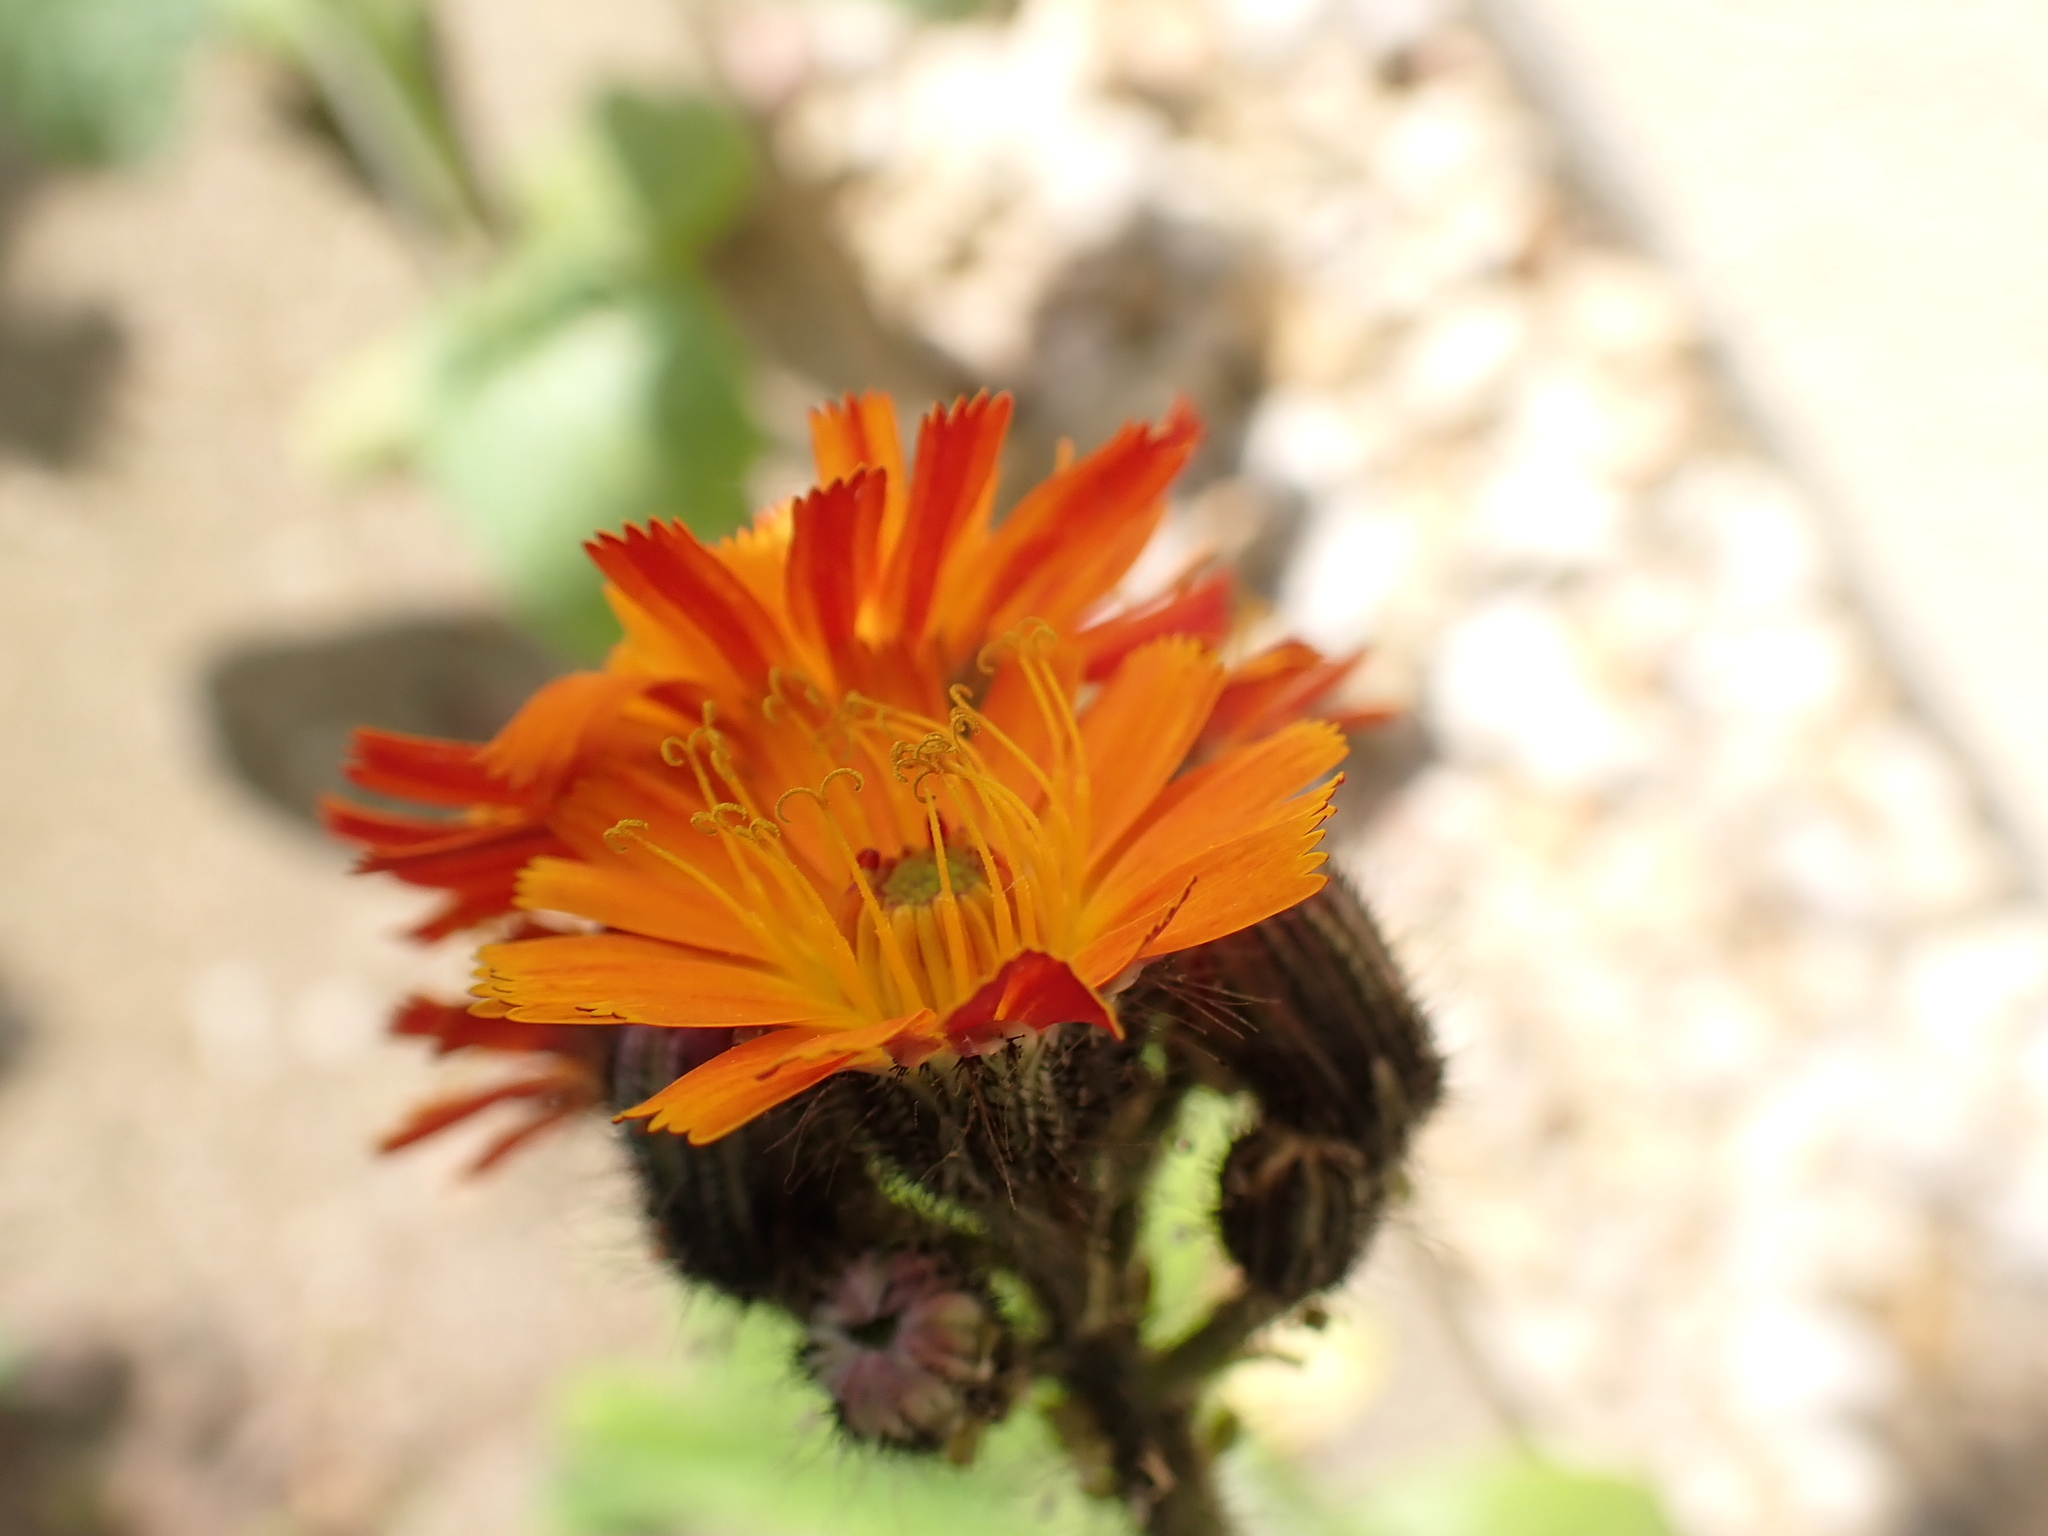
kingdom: Plantae
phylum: Tracheophyta
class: Magnoliopsida
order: Asterales
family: Asteraceae
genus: Pilosella
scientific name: Pilosella aurantiaca
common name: Fox-and-cubs
